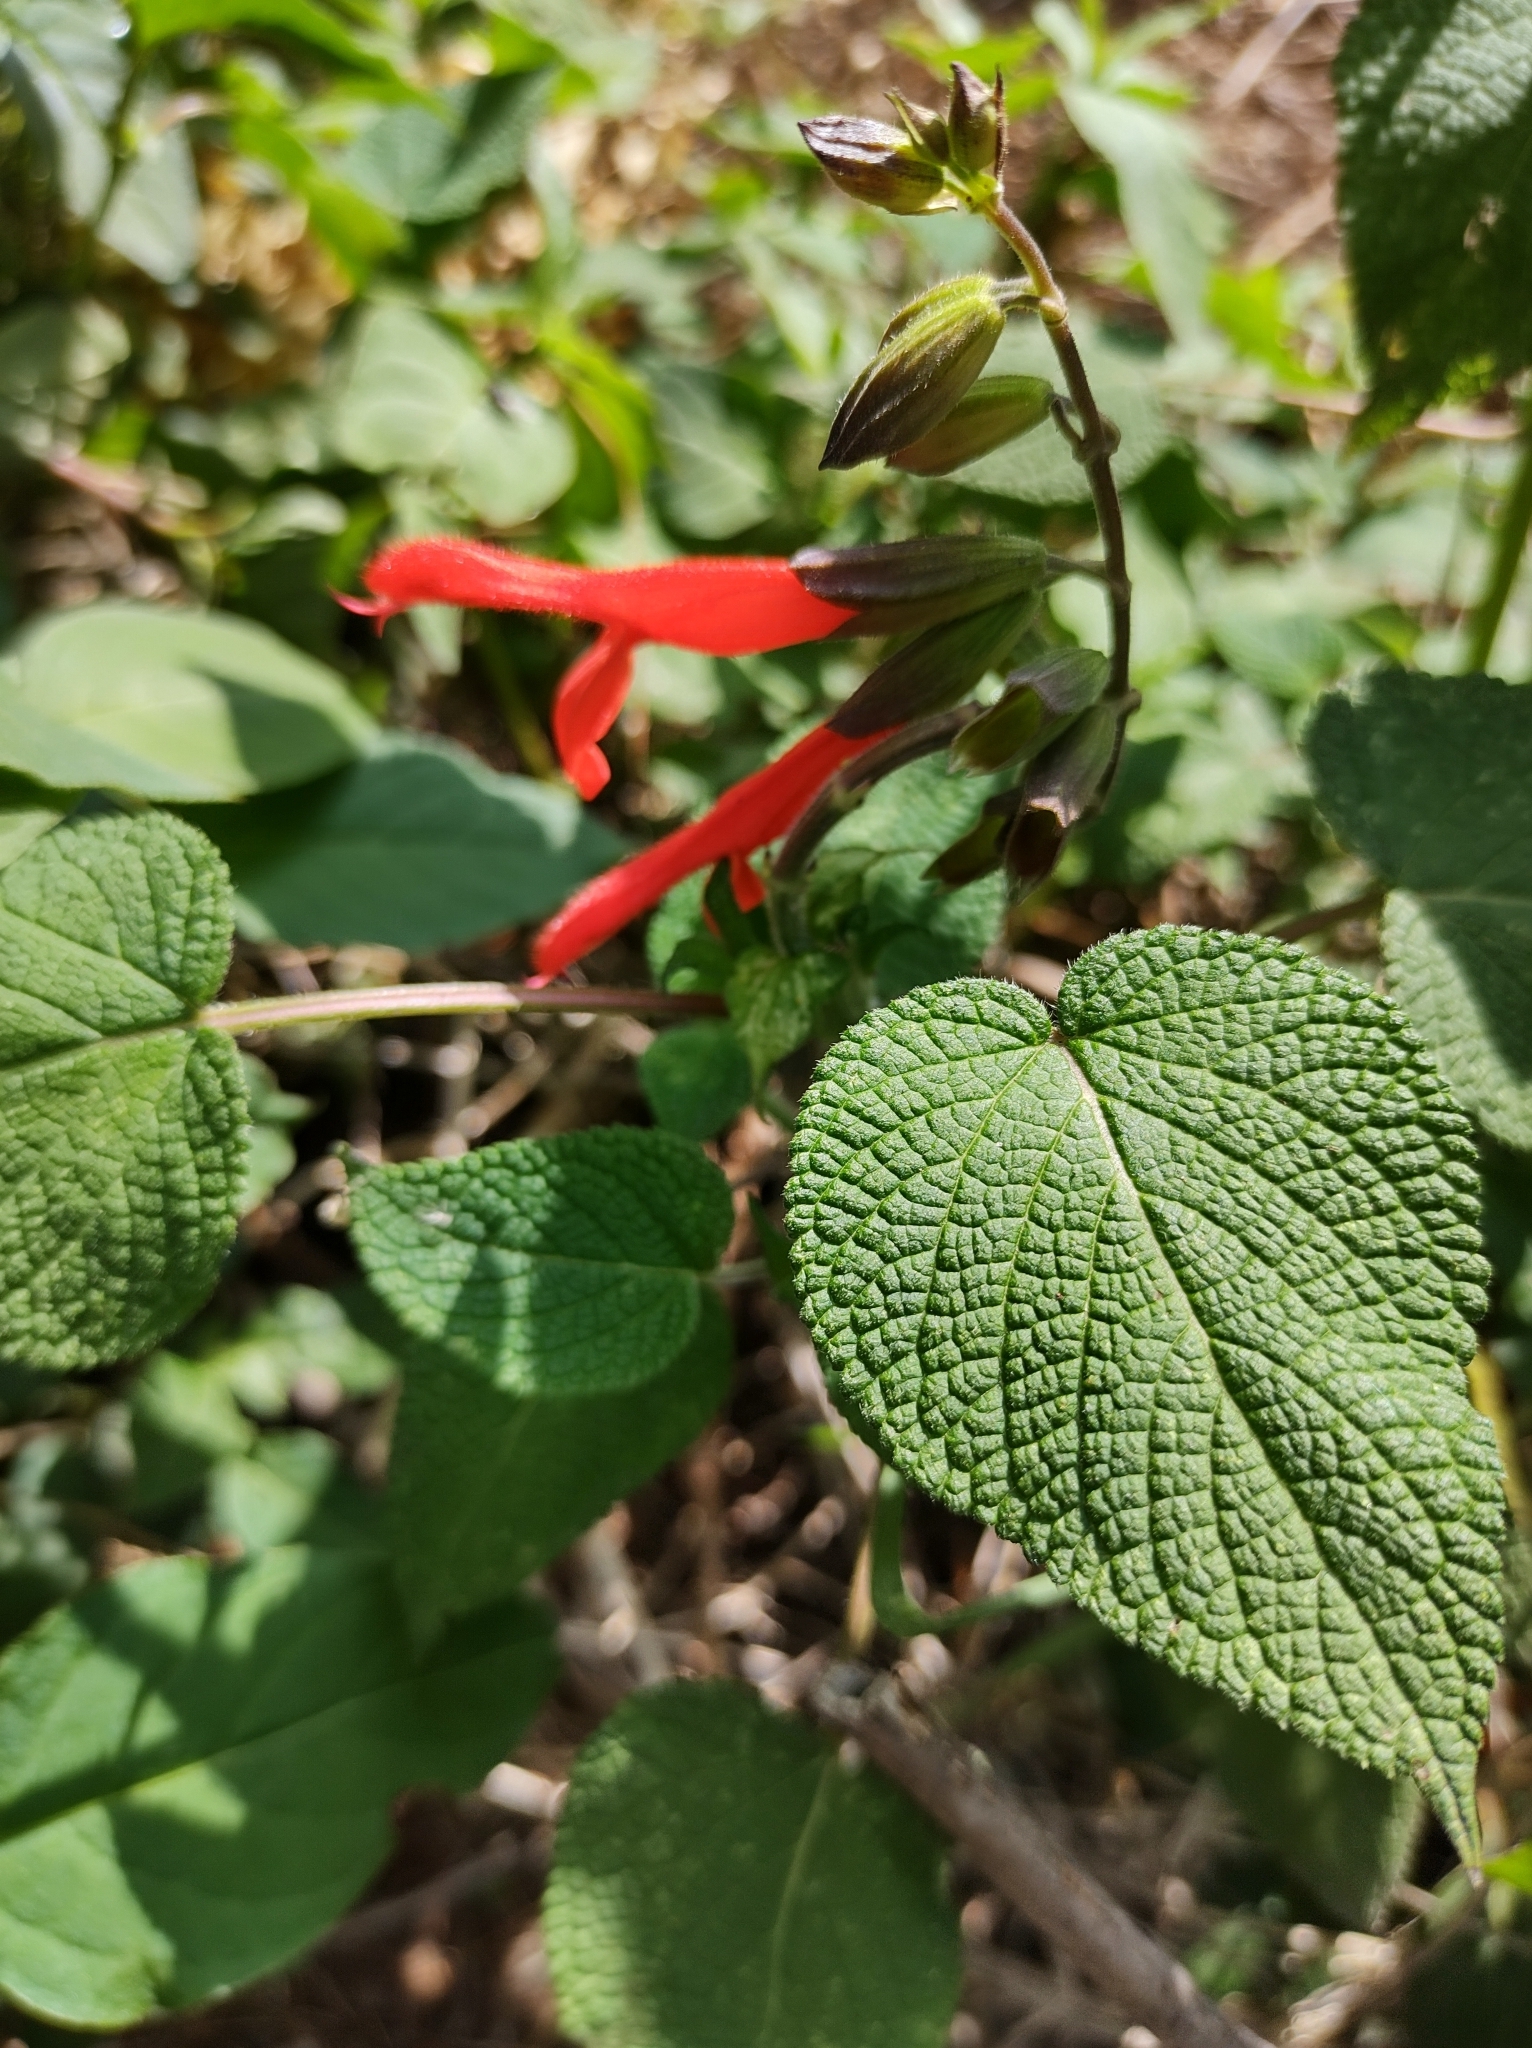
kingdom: Plantae
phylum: Tracheophyta
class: Magnoliopsida
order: Lamiales
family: Lamiaceae
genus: Salvia
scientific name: Salvia gesneriiflora
